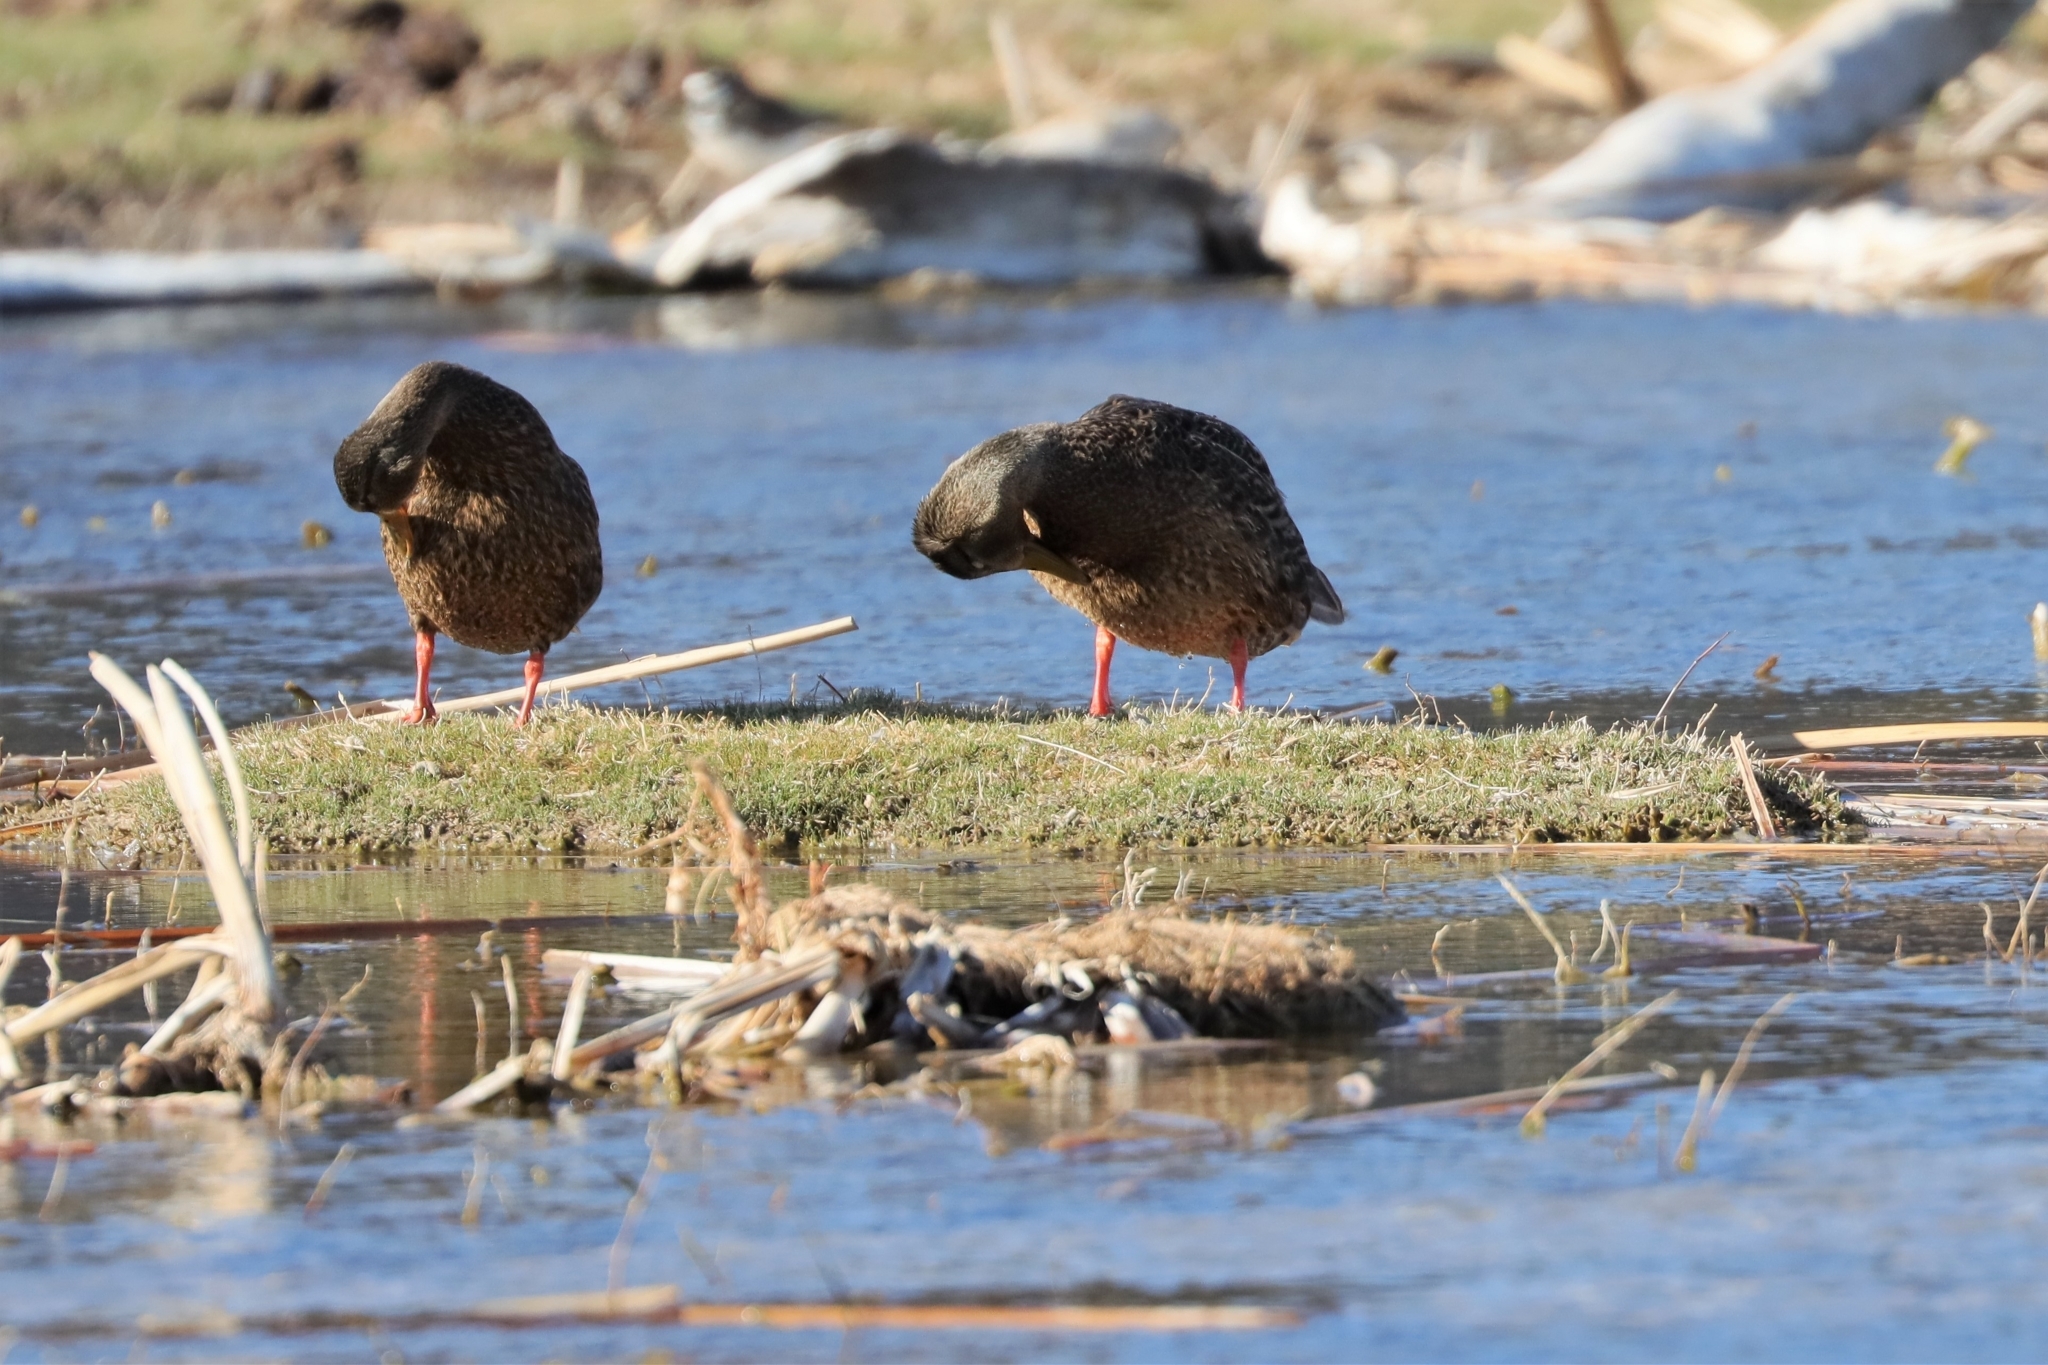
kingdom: Animalia
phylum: Chordata
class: Aves
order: Anseriformes
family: Anatidae
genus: Anas
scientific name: Anas diazi
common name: Mexican duck
